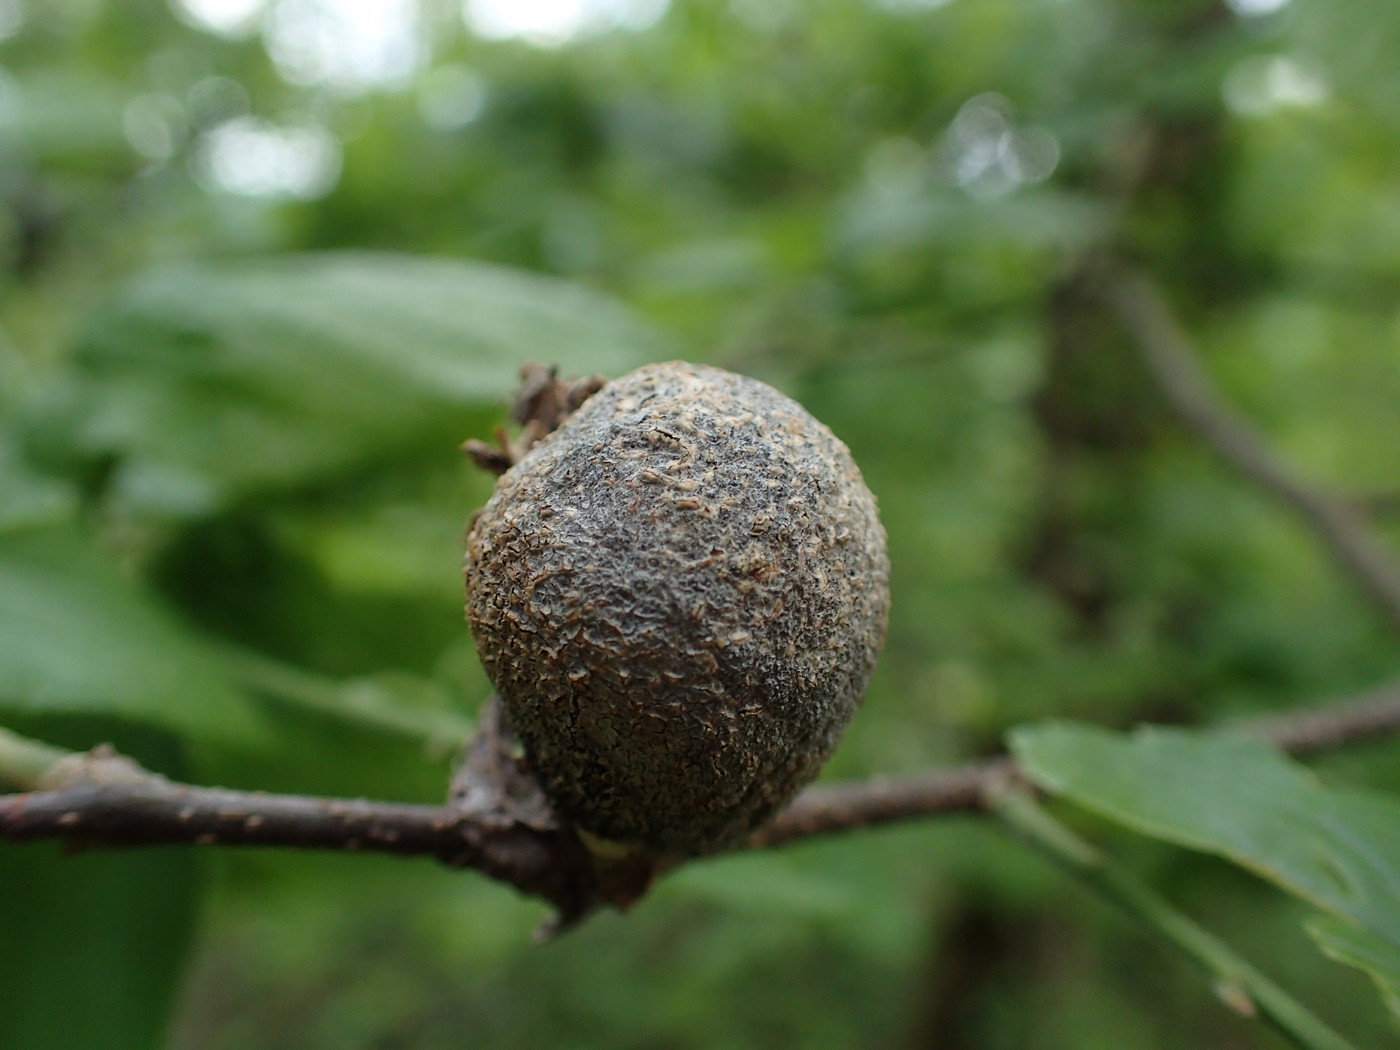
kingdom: Animalia
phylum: Arthropoda
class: Insecta
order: Hemiptera
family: Aphalaridae
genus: Pachypsylla
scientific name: Pachypsylla venusta
